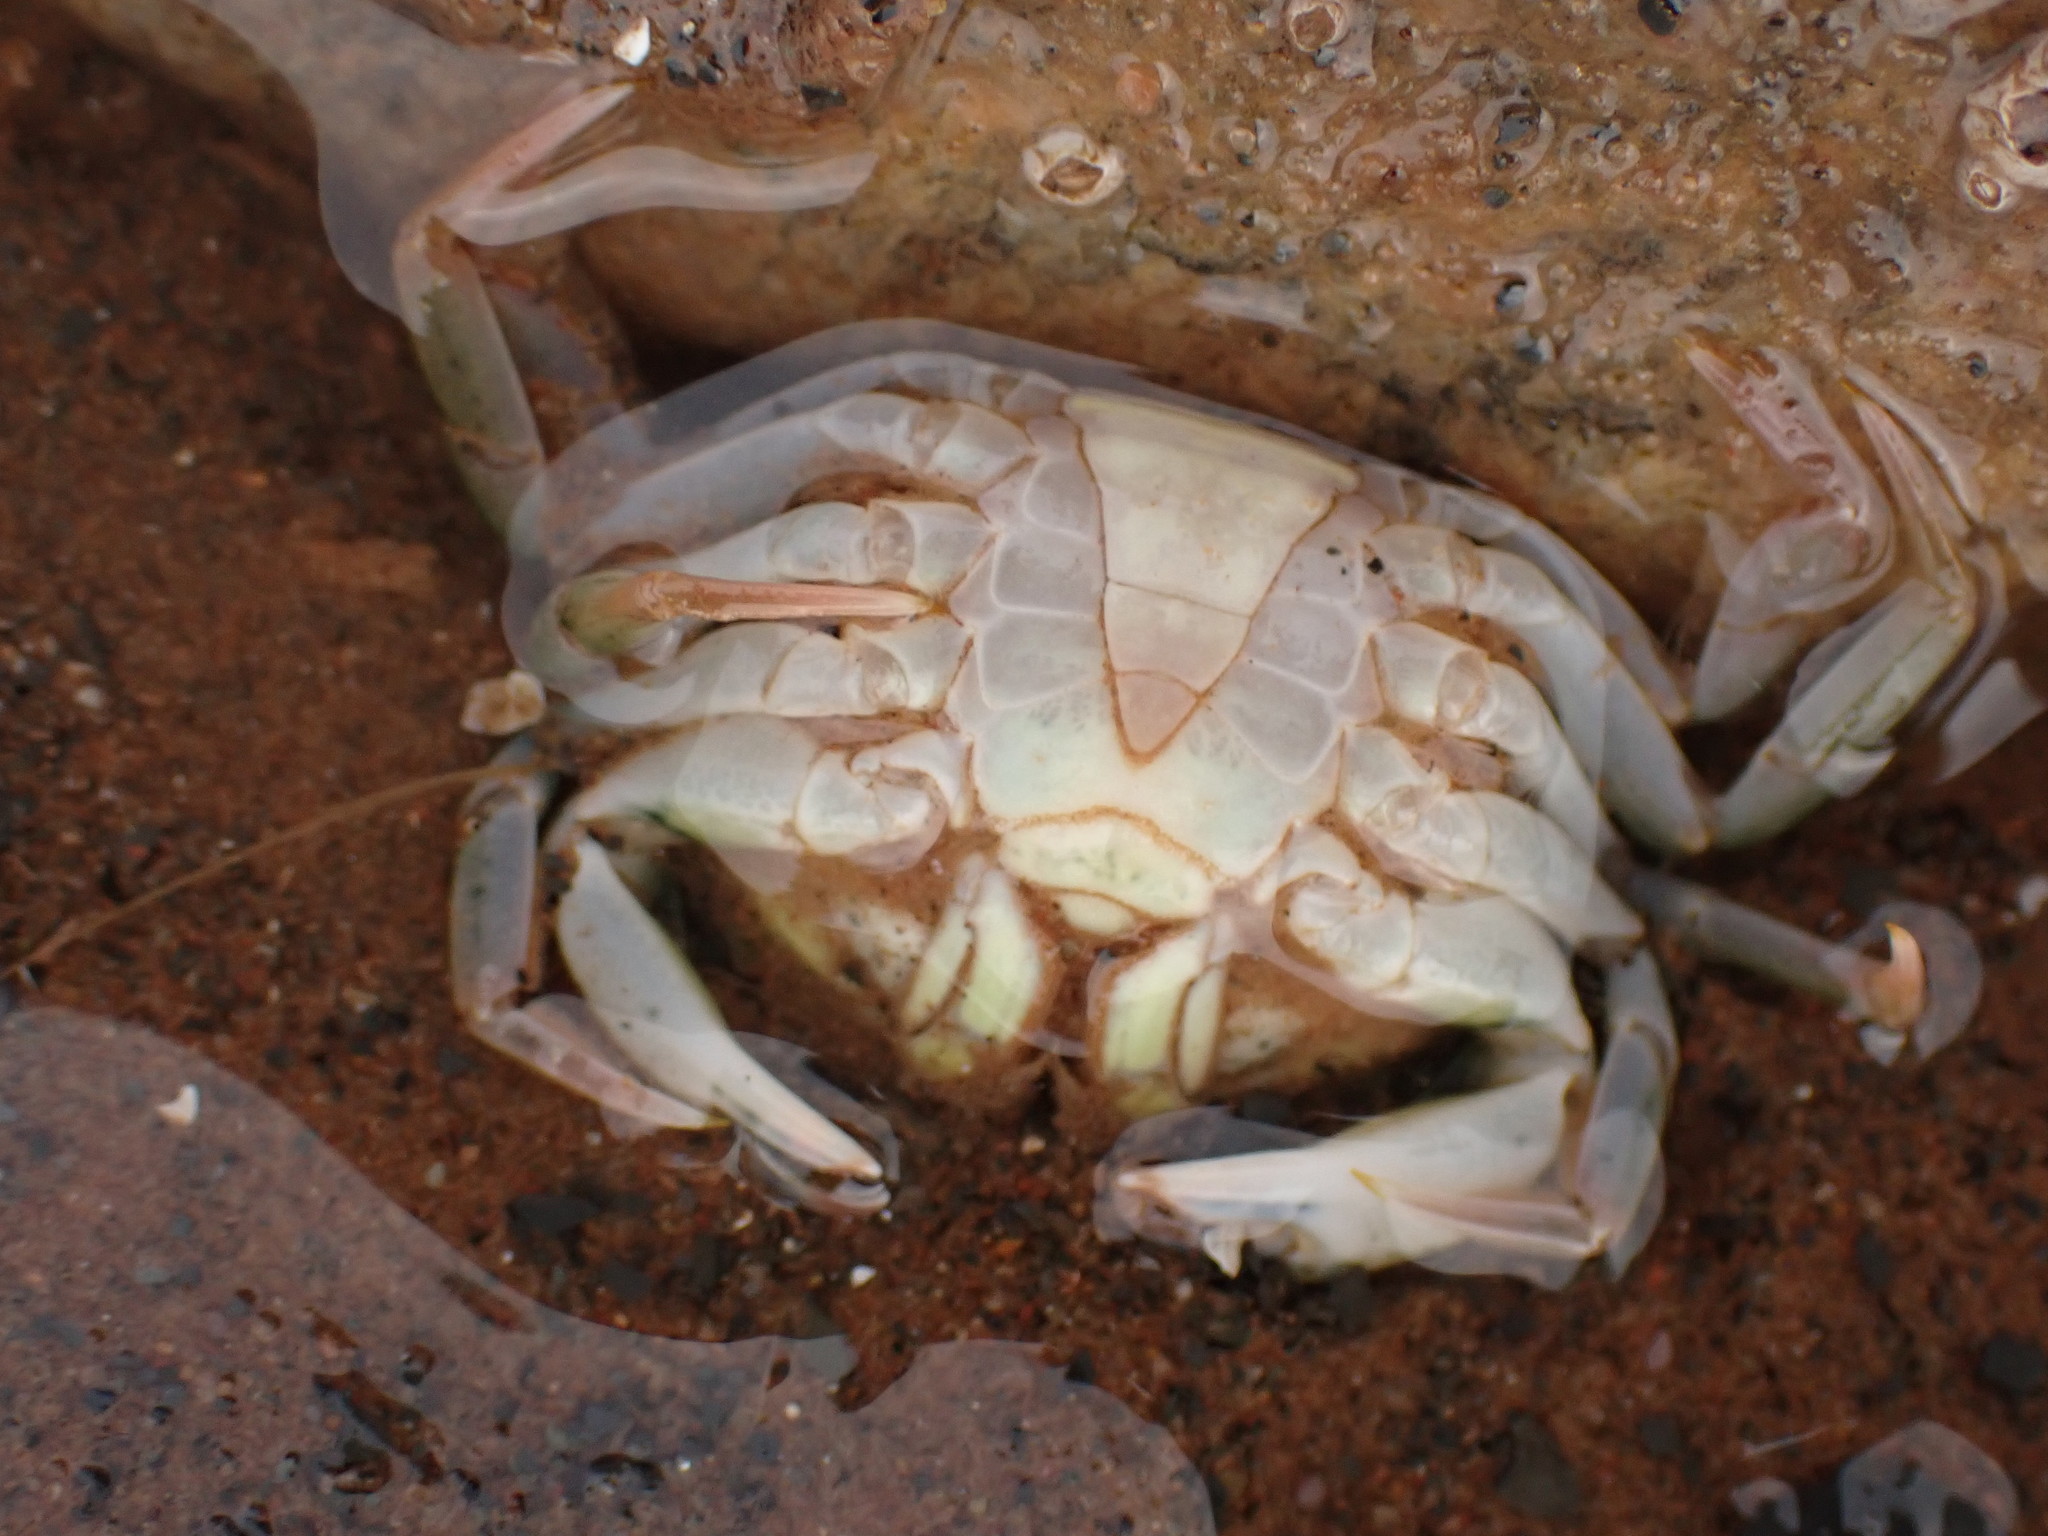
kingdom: Animalia
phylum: Arthropoda
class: Malacostraca
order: Decapoda
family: Carcinidae
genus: Carcinus
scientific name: Carcinus maenas
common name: European green crab
